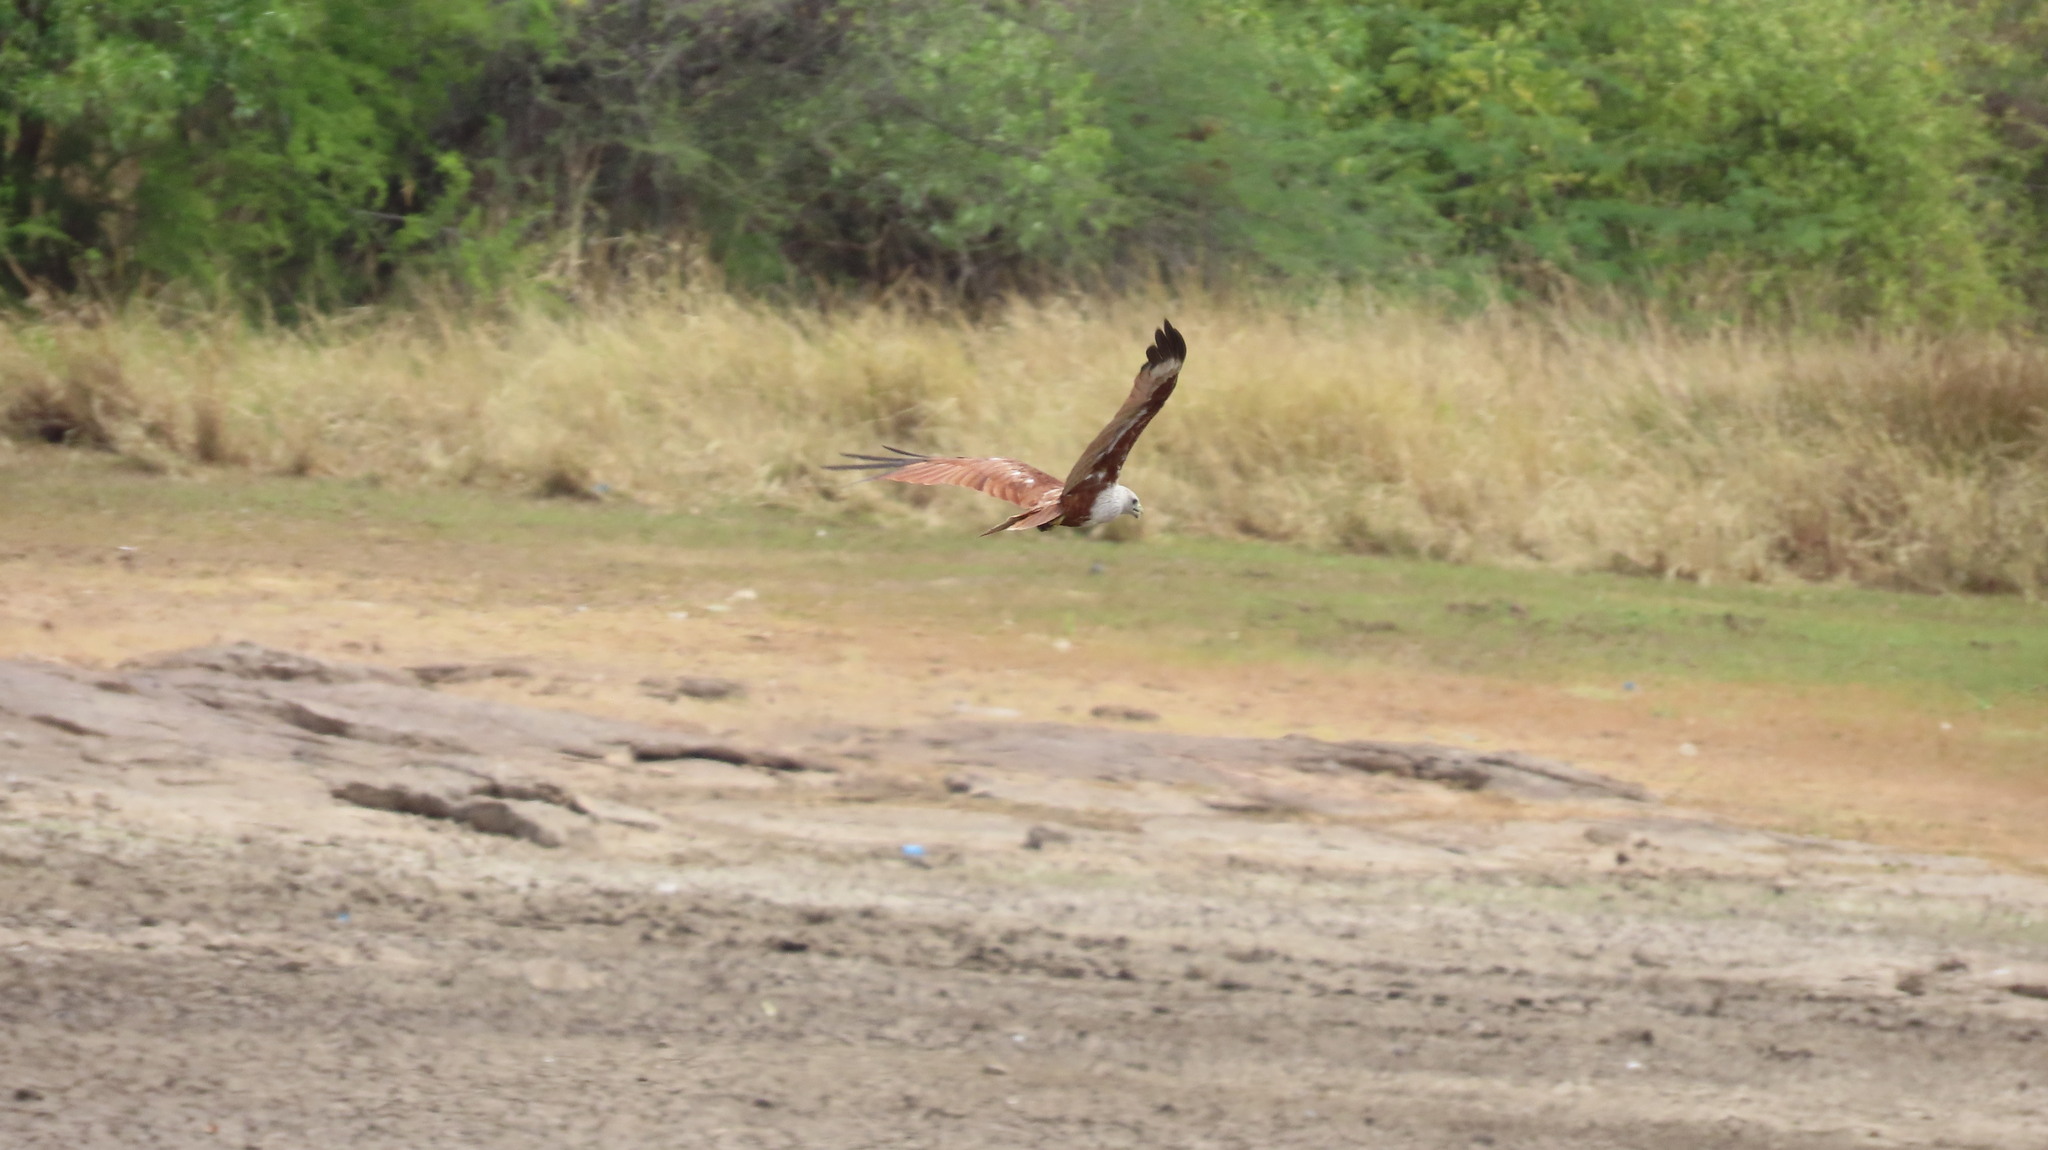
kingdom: Animalia
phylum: Chordata
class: Aves
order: Accipitriformes
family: Accipitridae
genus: Haliastur
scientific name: Haliastur indus
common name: Brahminy kite
